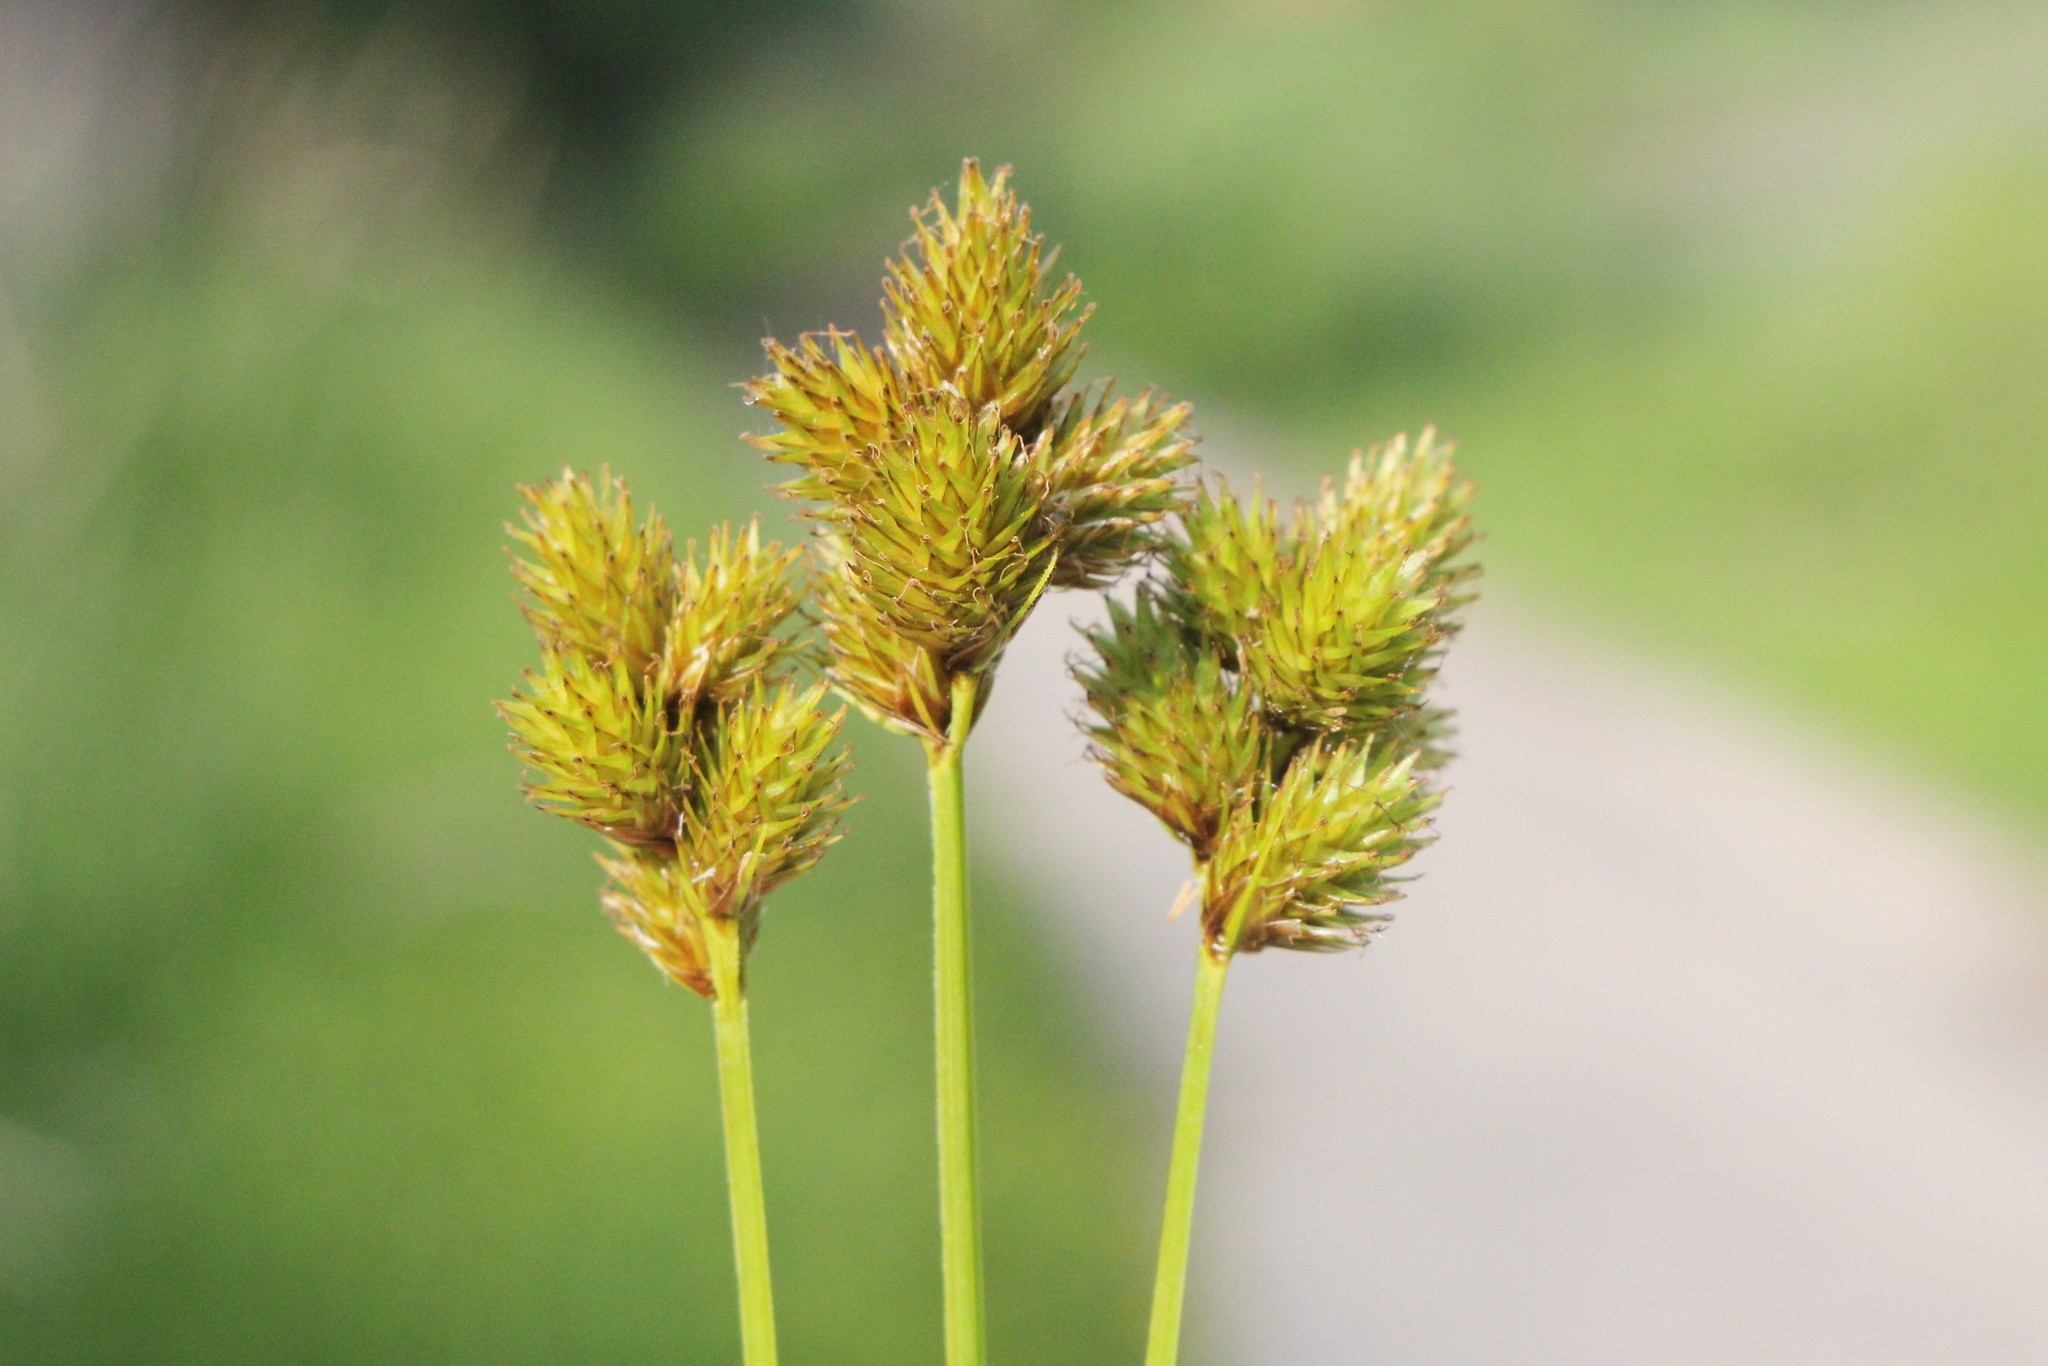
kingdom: Plantae
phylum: Tracheophyta
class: Liliopsida
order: Poales
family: Cyperaceae
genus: Carex
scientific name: Carex bebbii
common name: Bebb's sedge
